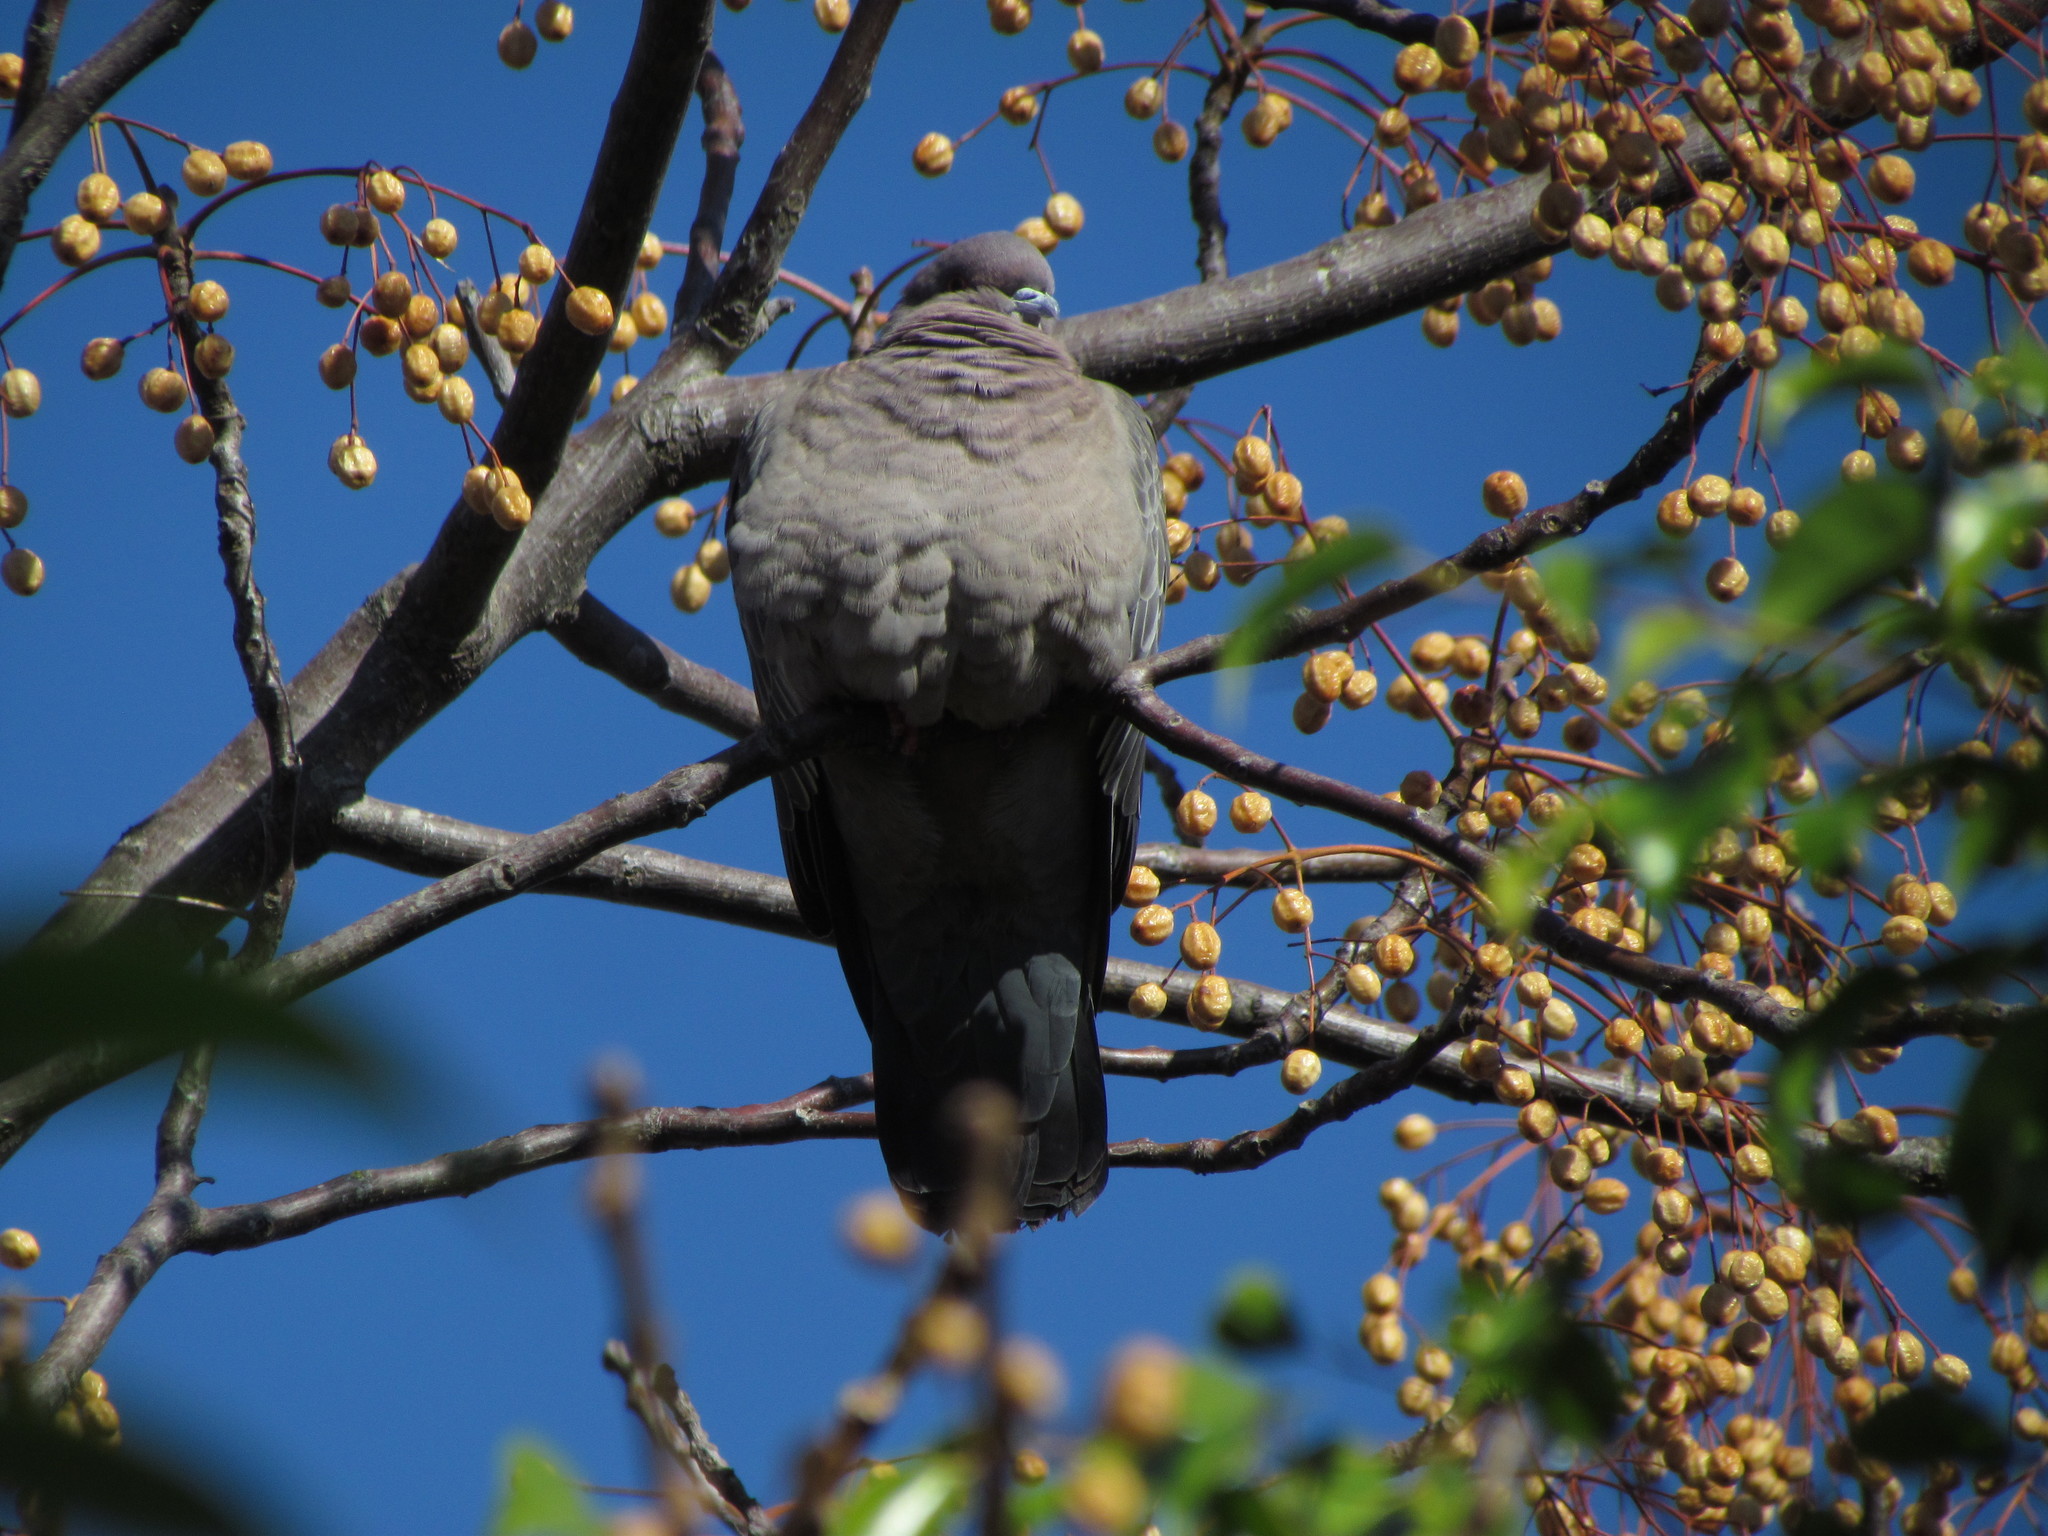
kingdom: Animalia
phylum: Chordata
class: Aves
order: Columbiformes
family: Columbidae
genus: Patagioenas
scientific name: Patagioenas picazuro
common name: Picazuro pigeon
